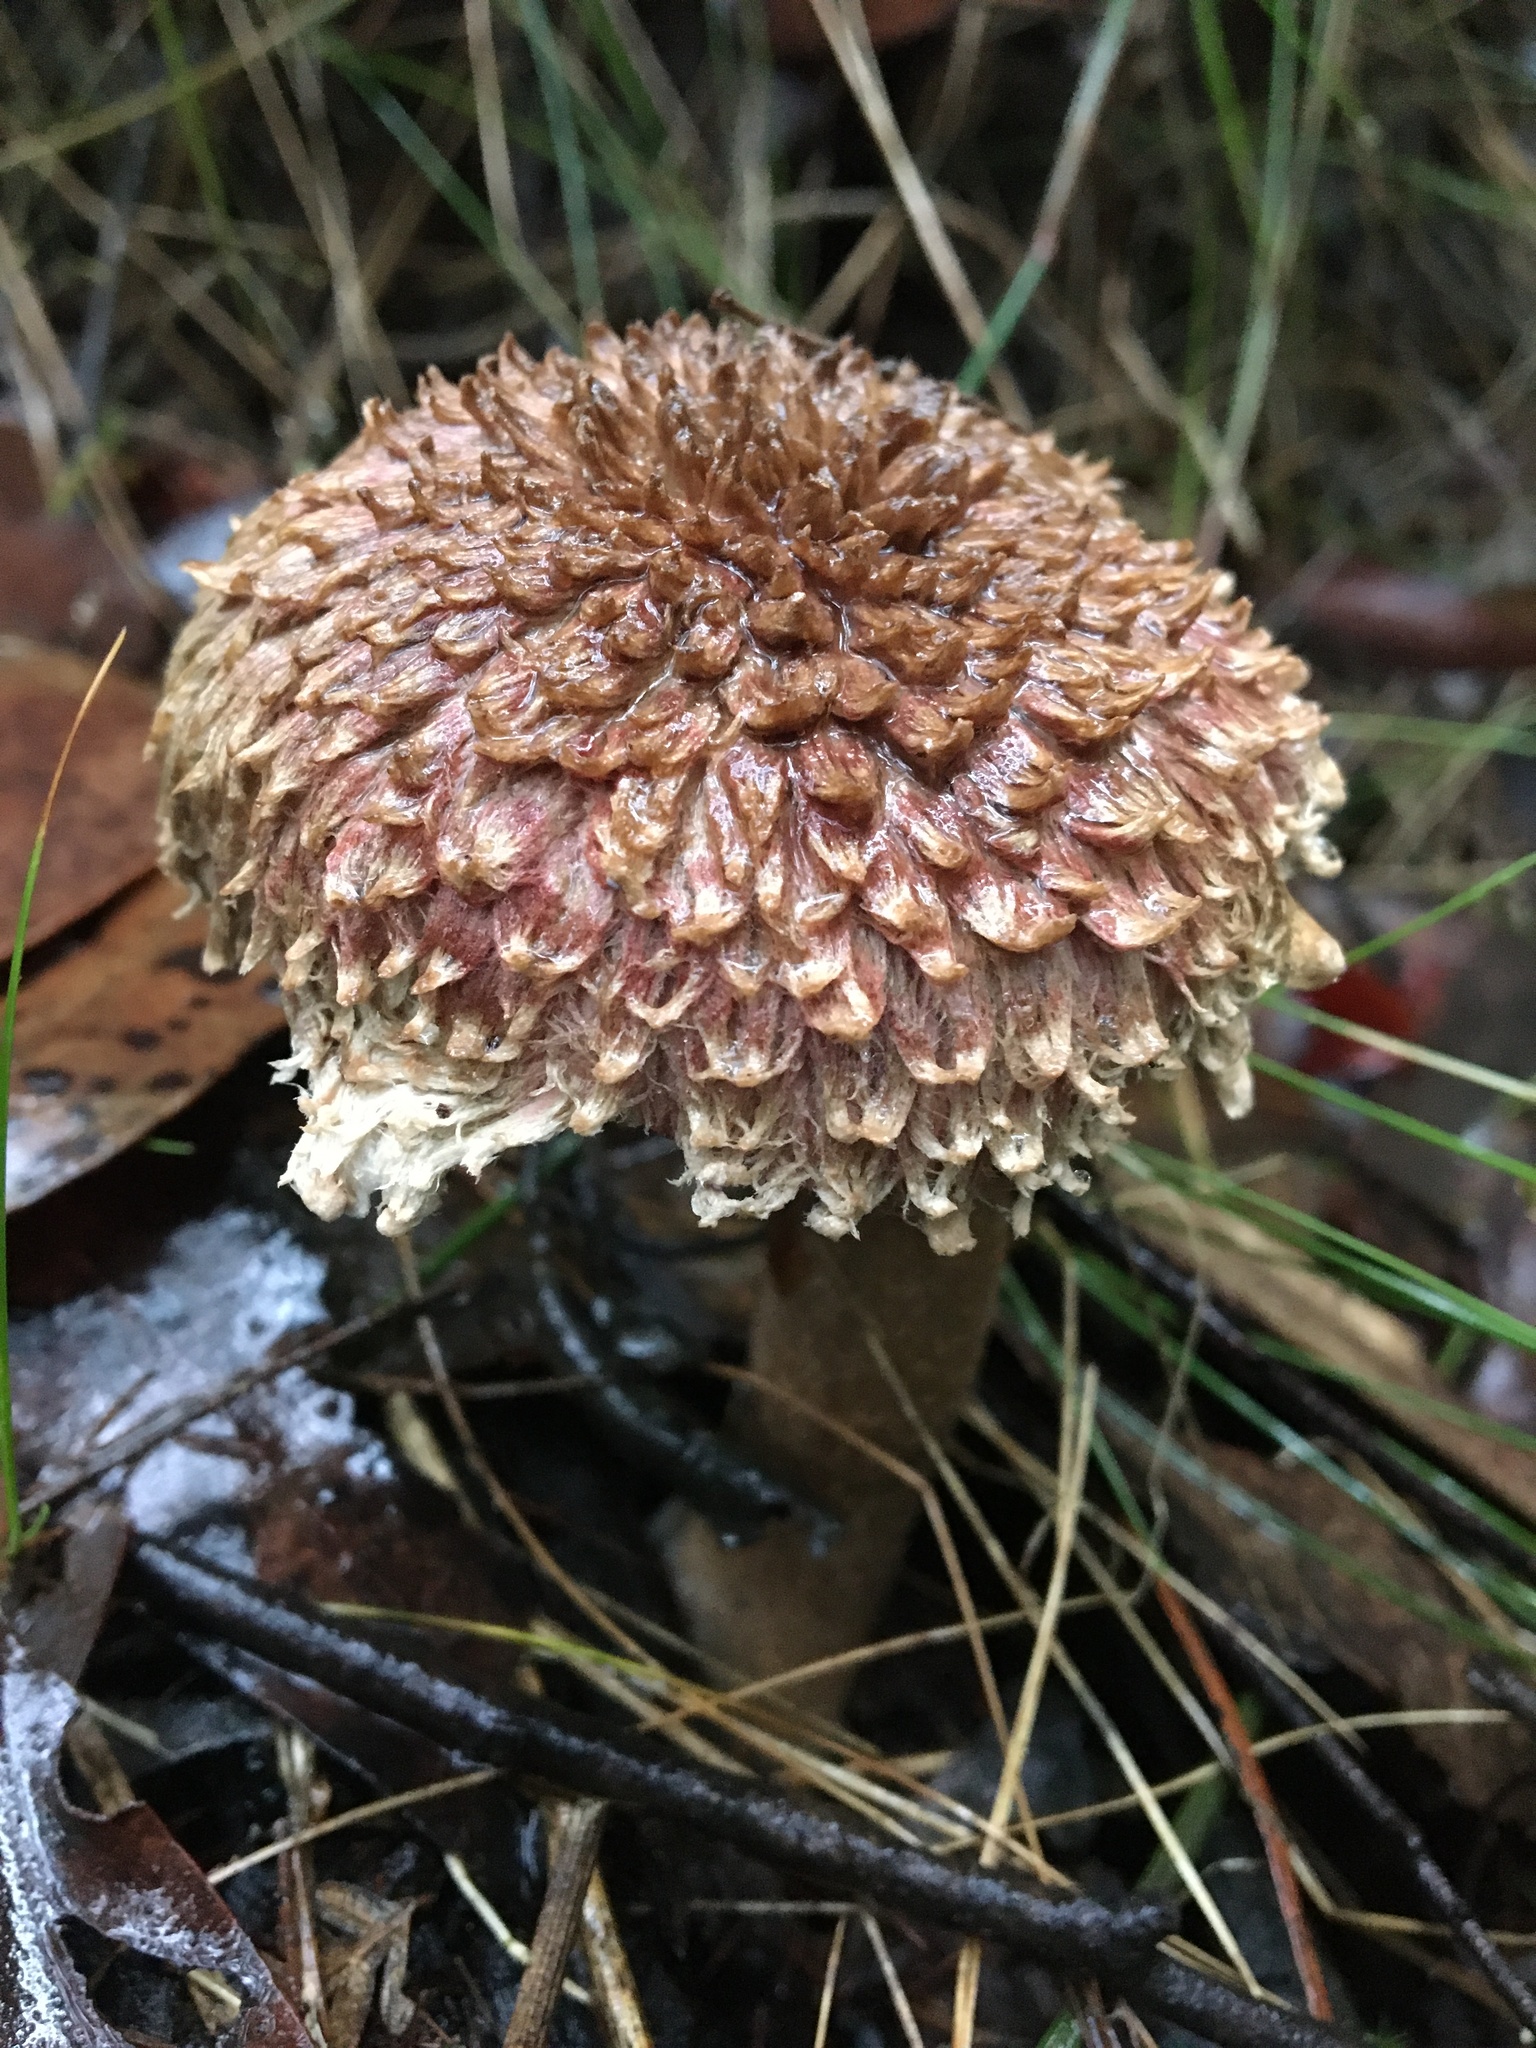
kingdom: Fungi
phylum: Basidiomycota
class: Agaricomycetes
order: Boletales
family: Boletaceae
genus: Boletellus
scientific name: Boletellus emodensis
